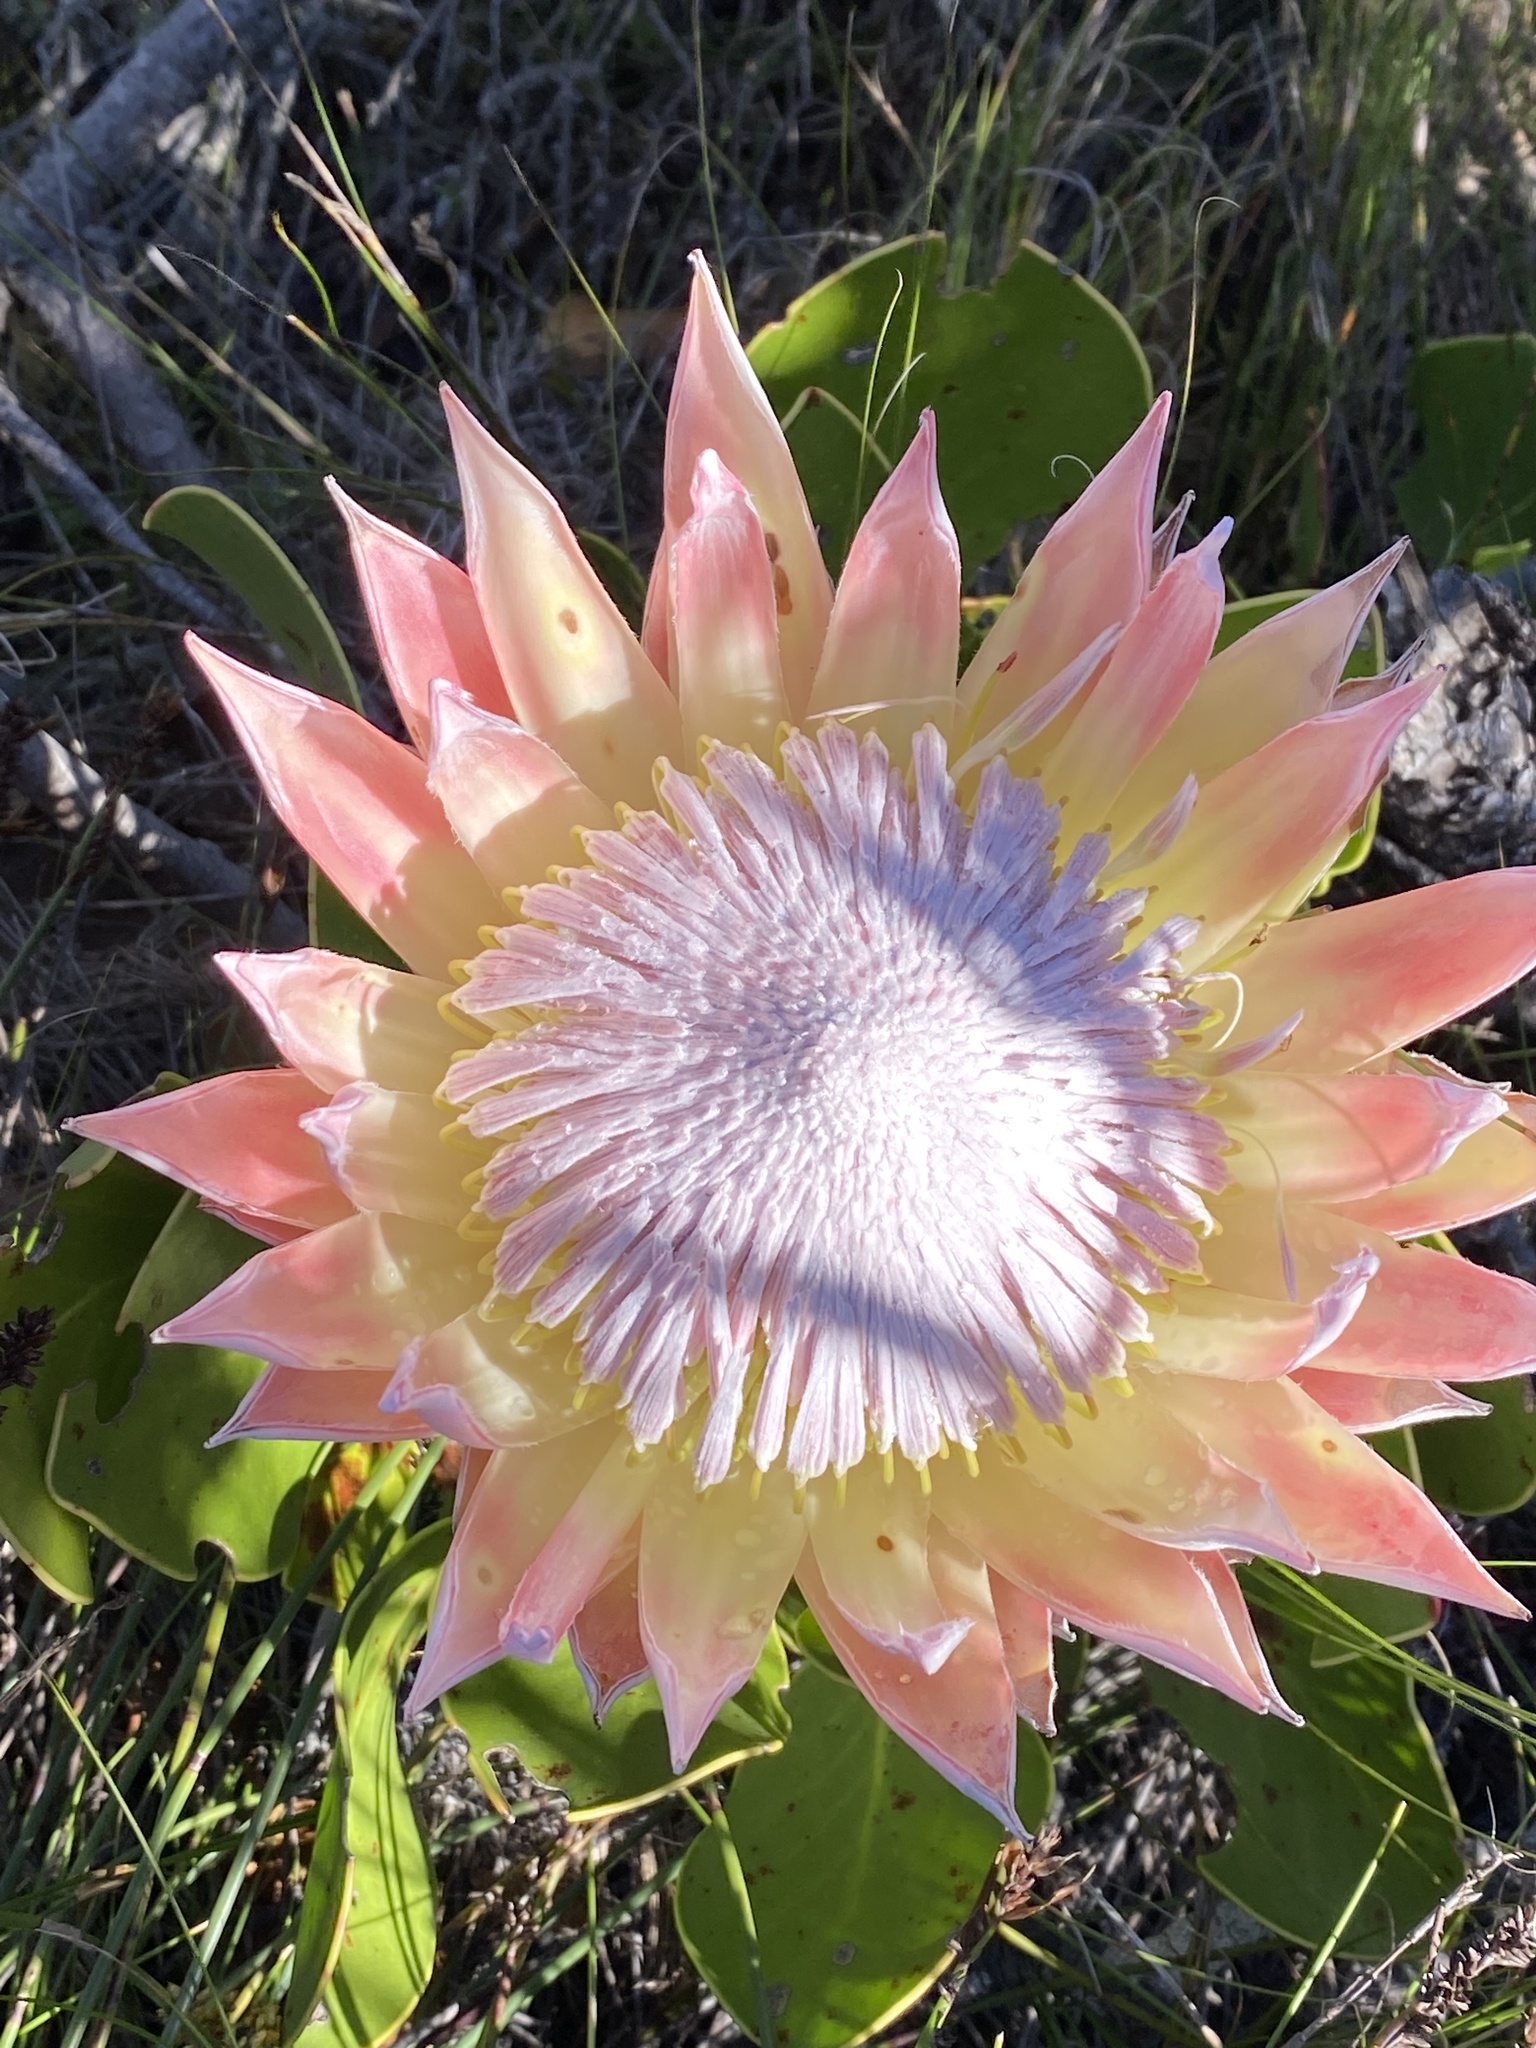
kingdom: Plantae
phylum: Tracheophyta
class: Magnoliopsida
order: Proteales
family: Proteaceae
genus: Protea
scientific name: Protea cynaroides
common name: King protea
